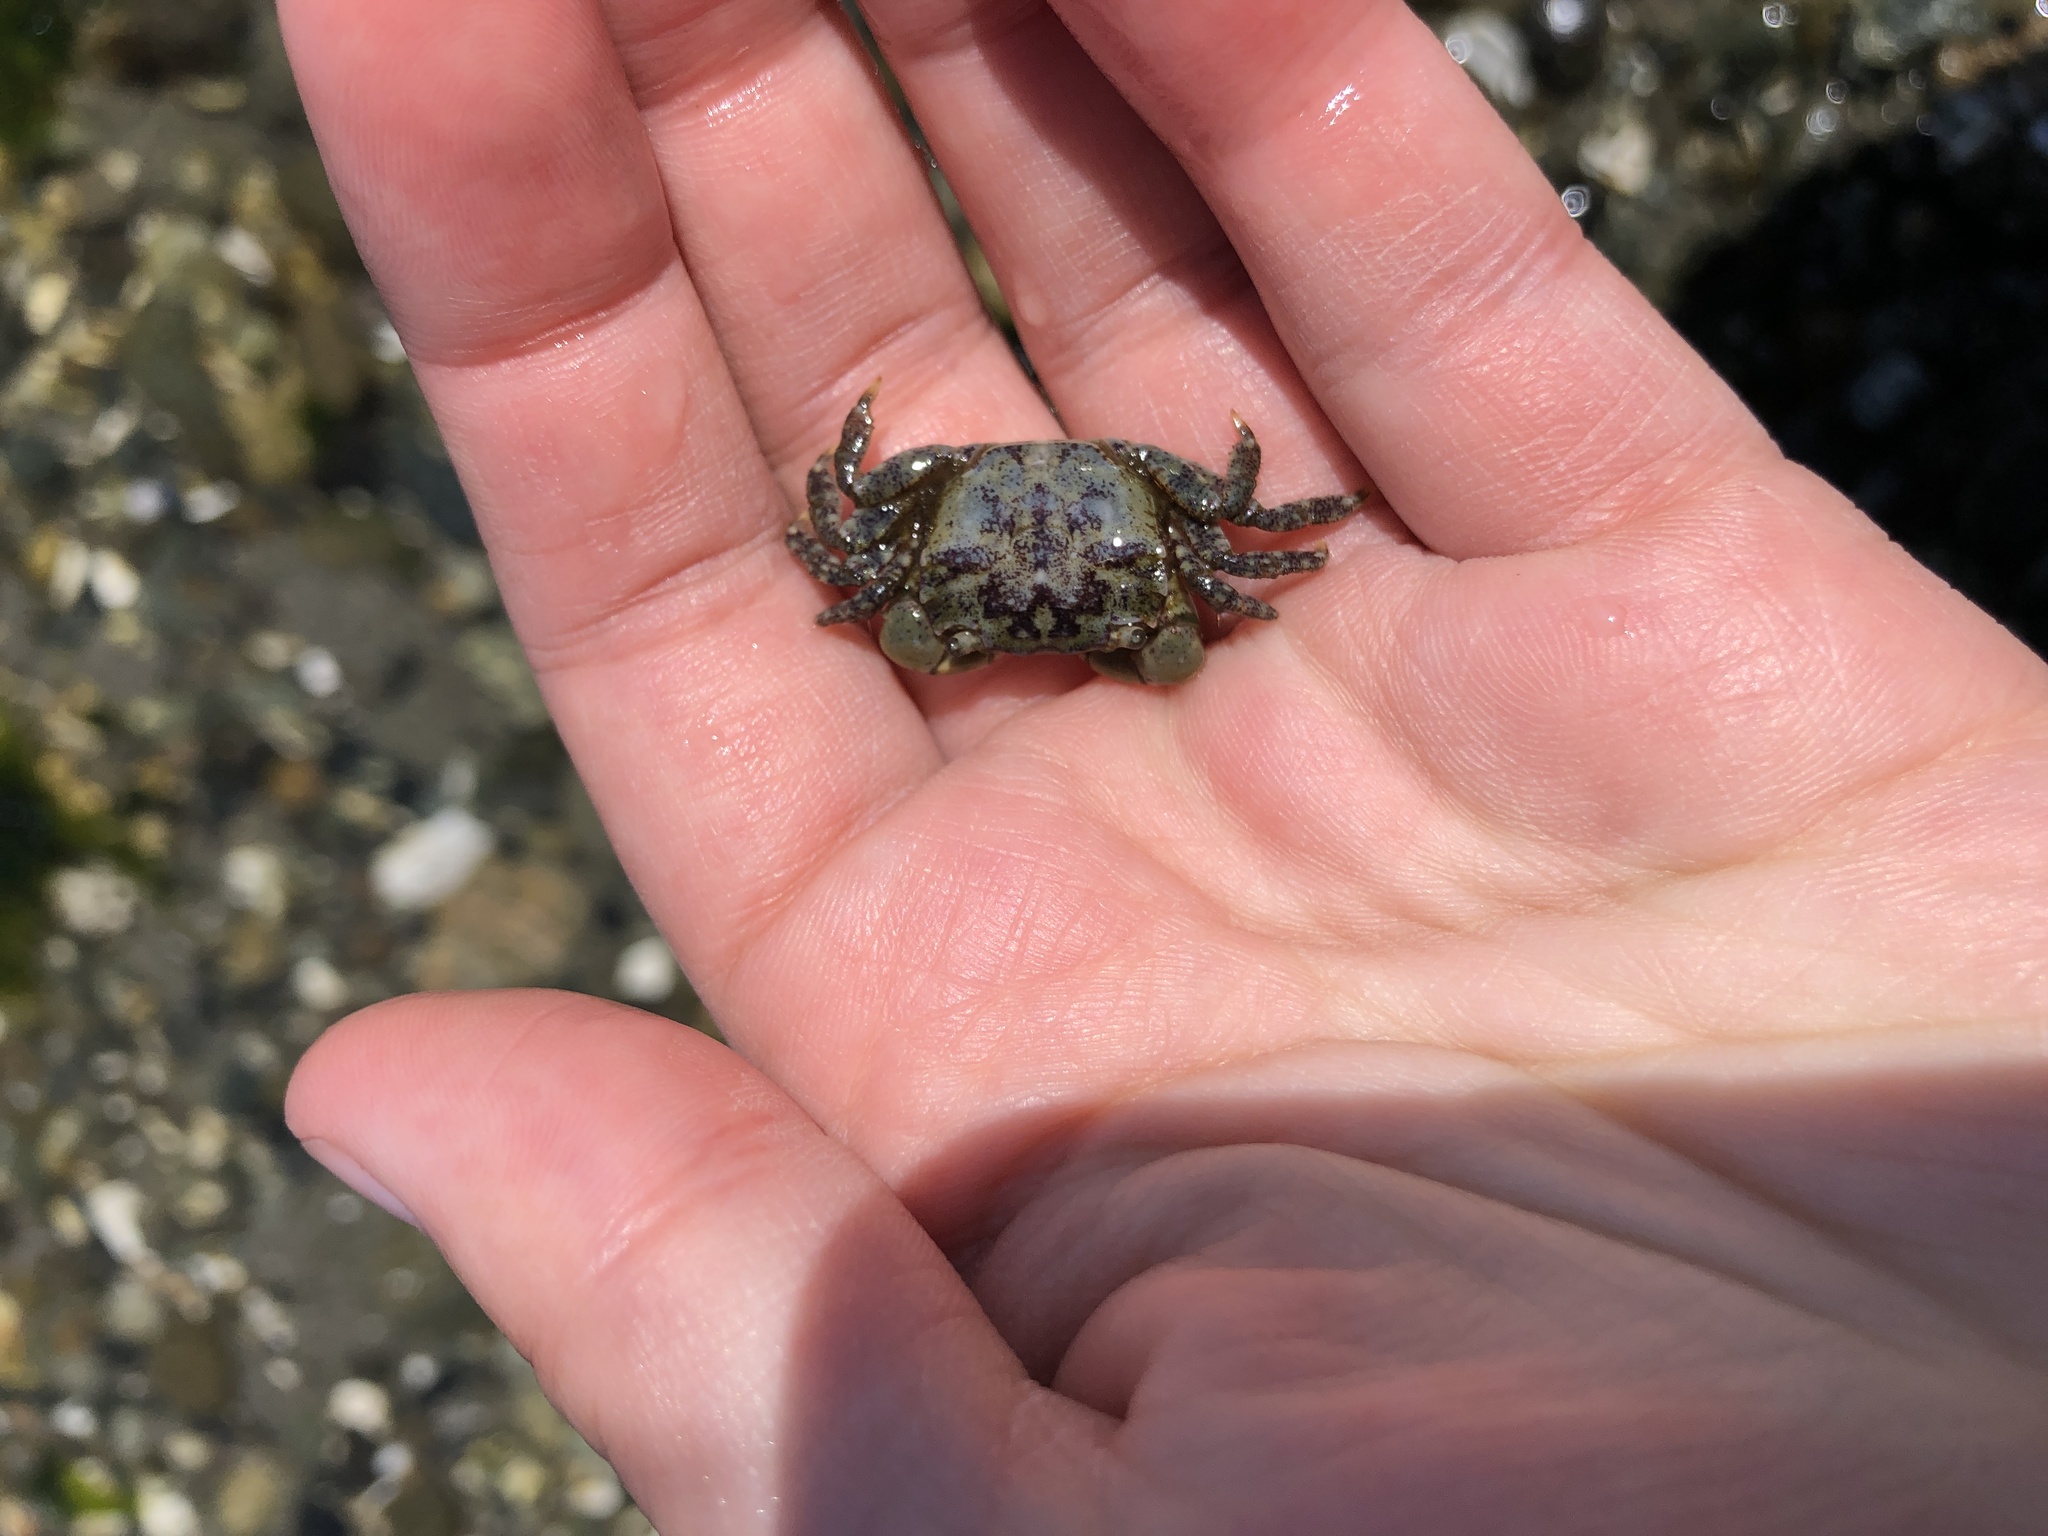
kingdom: Animalia
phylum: Arthropoda
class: Malacostraca
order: Decapoda
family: Varunidae
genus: Hemigrapsus
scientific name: Hemigrapsus oregonensis
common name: Yellow shore crab
